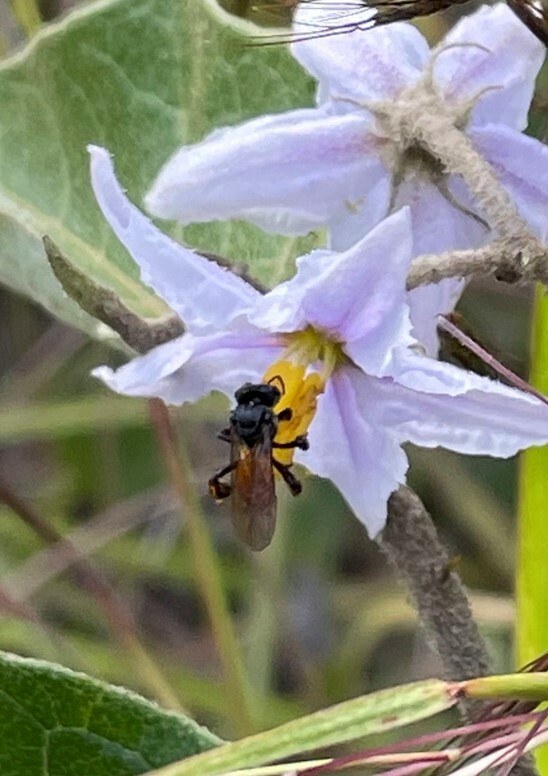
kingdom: Animalia
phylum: Arthropoda
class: Insecta
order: Hymenoptera
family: Apidae
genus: Trigona
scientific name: Trigona fulviventris
